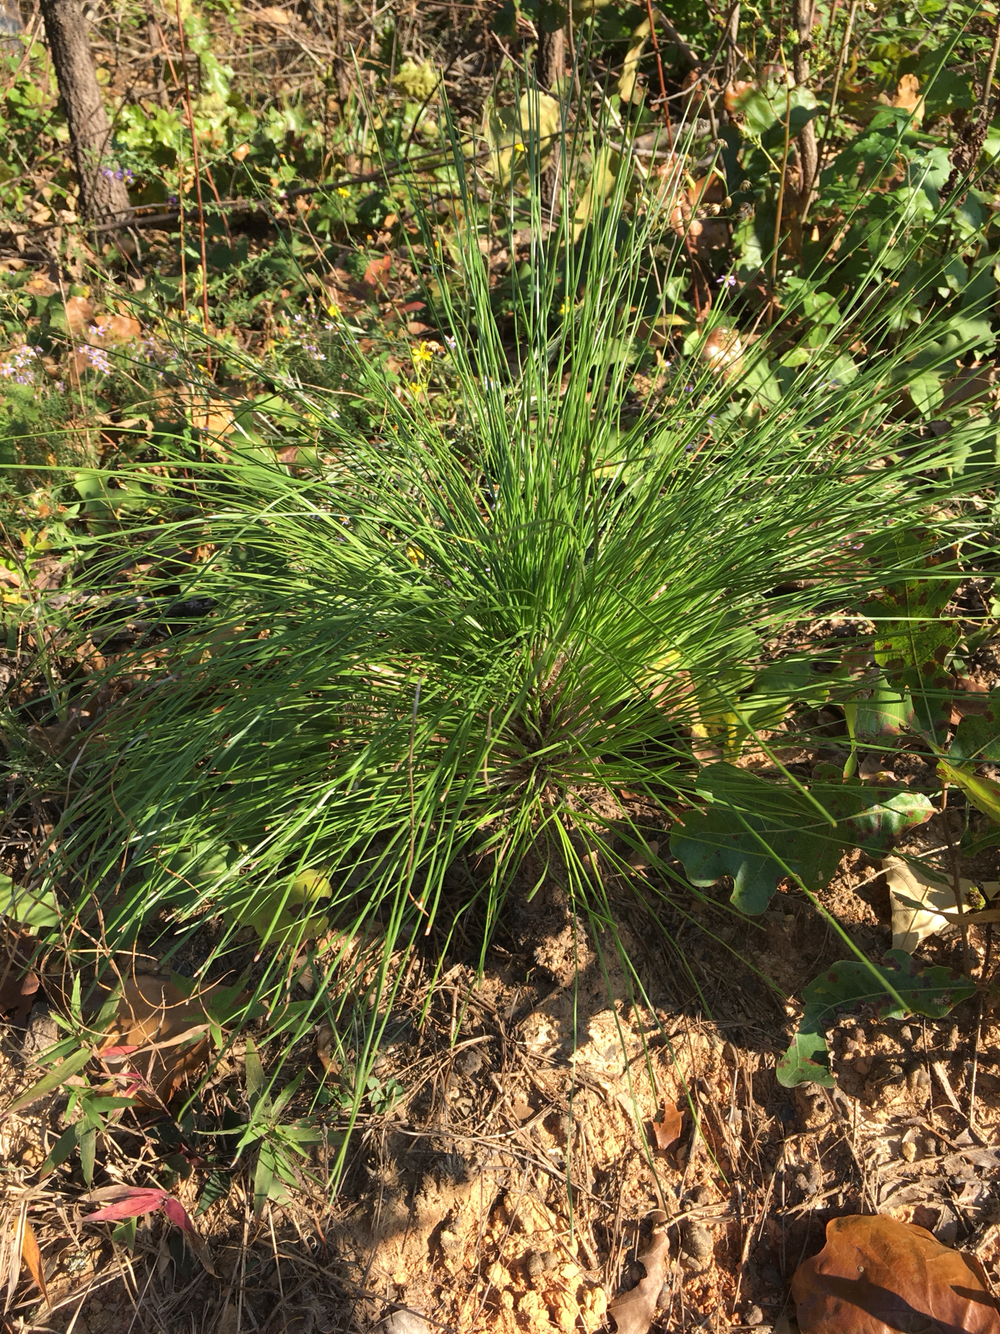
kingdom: Plantae
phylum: Tracheophyta
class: Pinopsida
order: Pinales
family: Pinaceae
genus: Pinus
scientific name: Pinus palustris
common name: Longleaf pine
